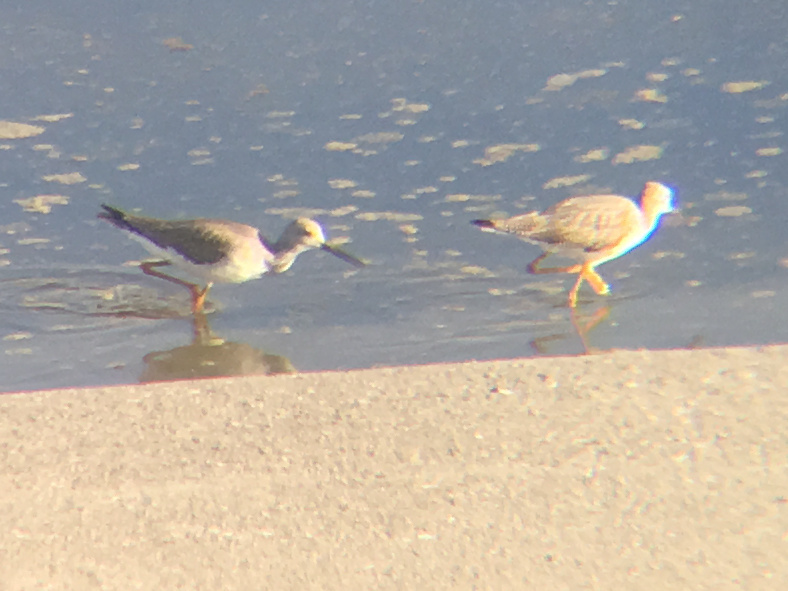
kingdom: Animalia
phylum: Chordata
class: Aves
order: Charadriiformes
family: Scolopacidae
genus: Tringa
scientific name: Tringa melanoleuca
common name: Greater yellowlegs
